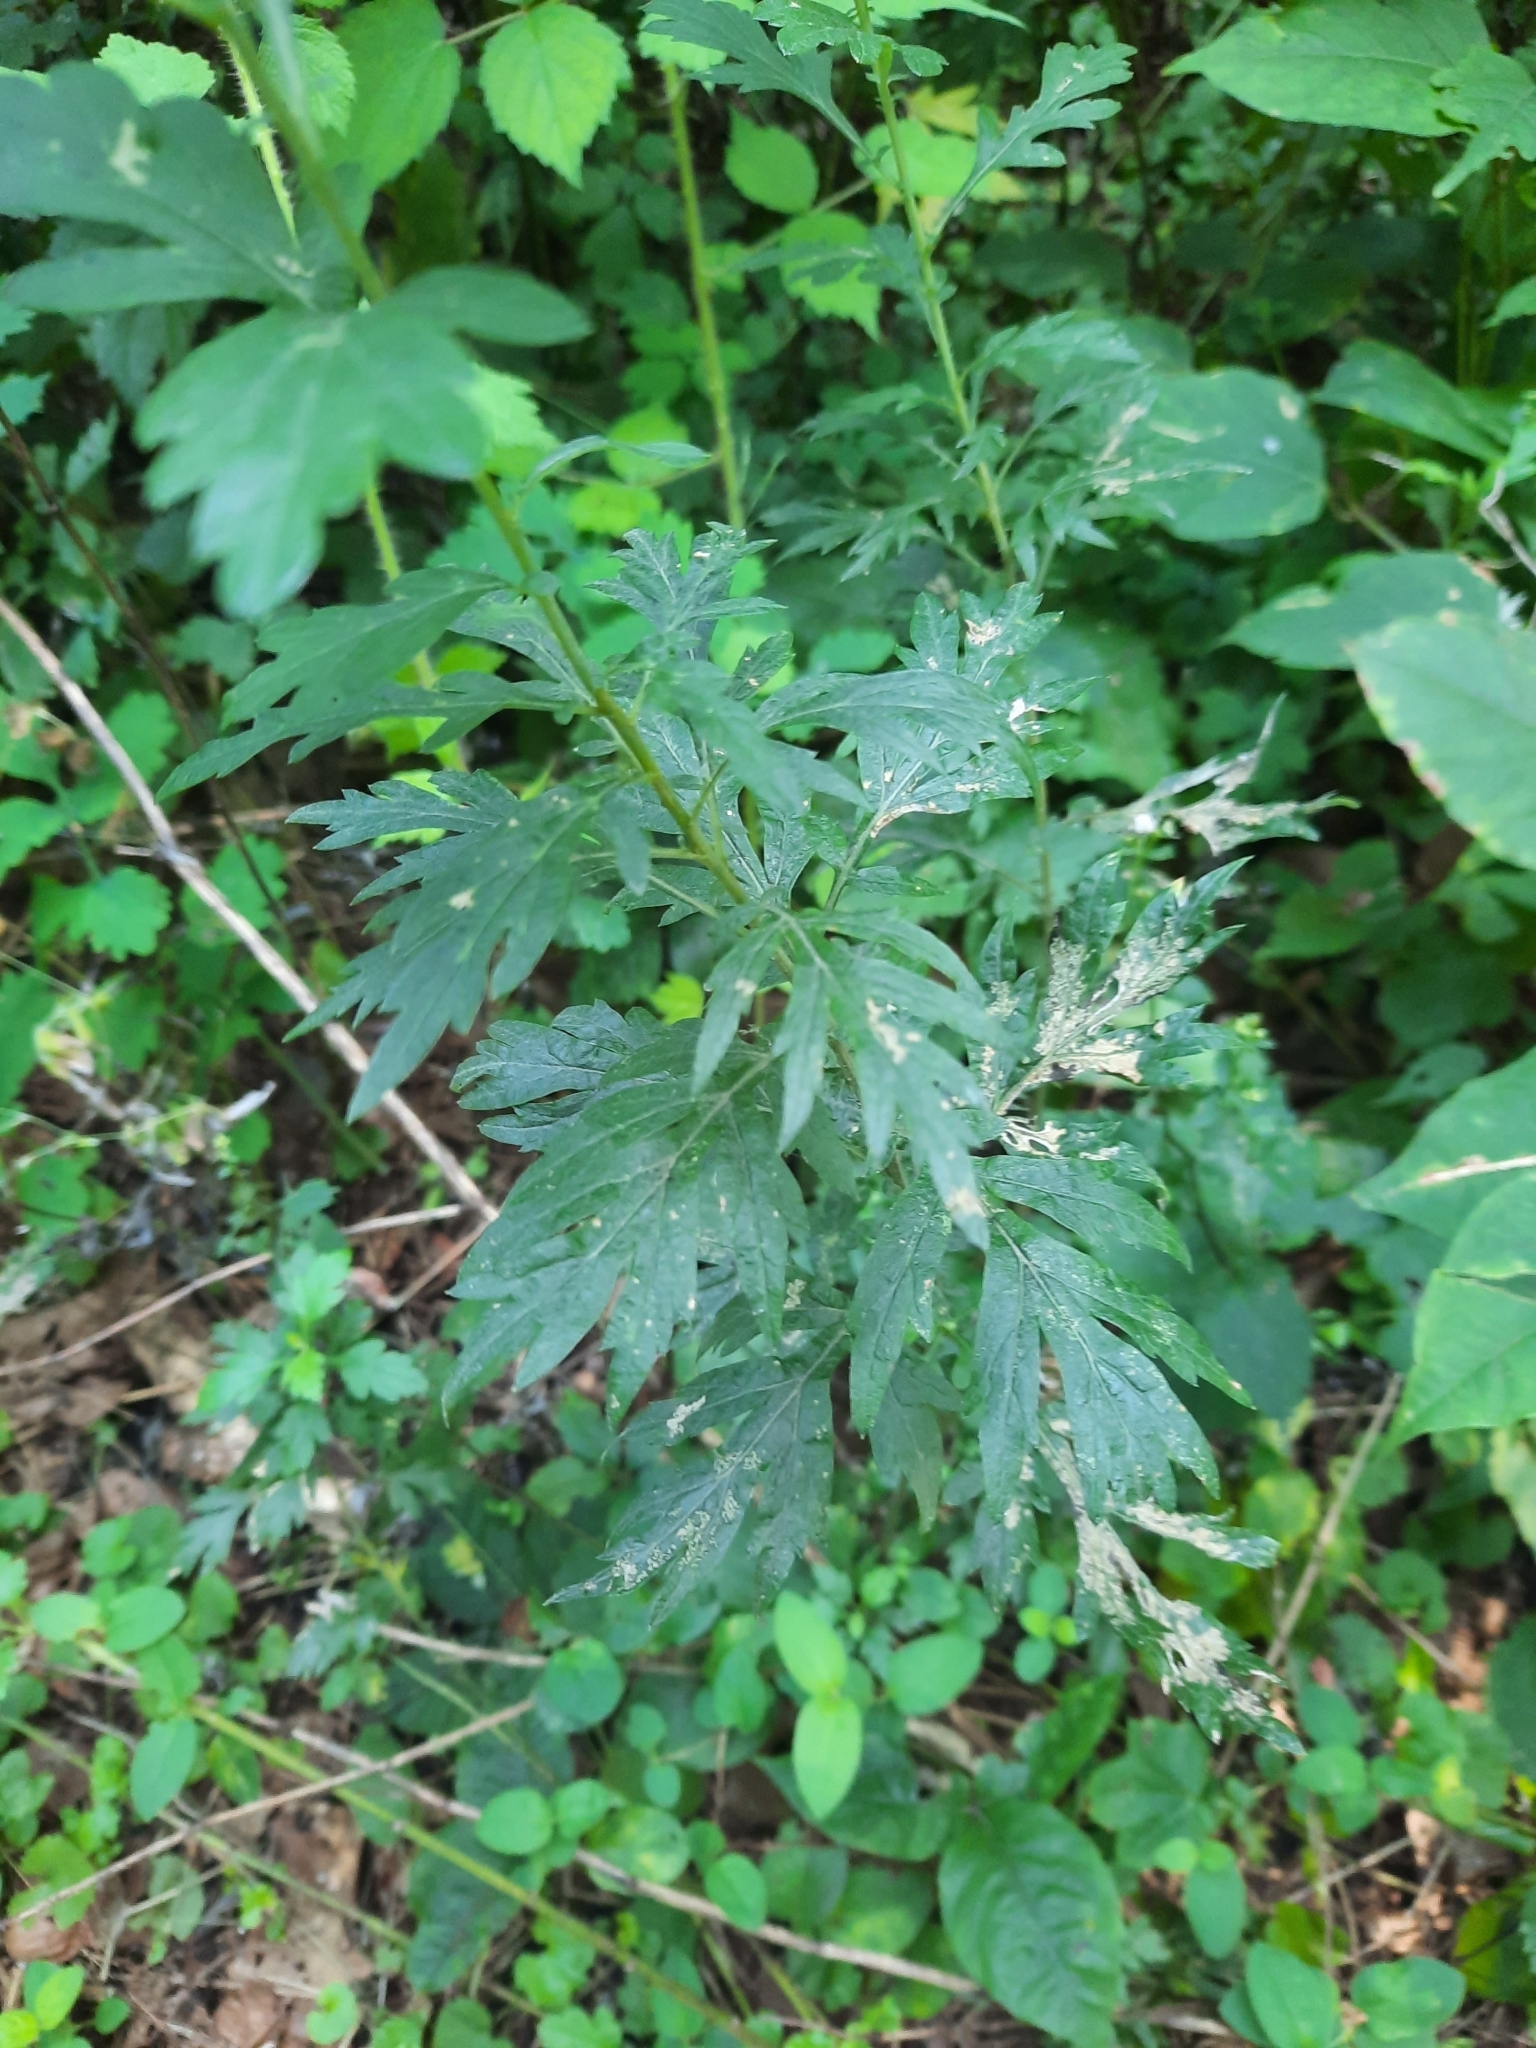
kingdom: Plantae
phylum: Tracheophyta
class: Magnoliopsida
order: Asterales
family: Asteraceae
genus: Artemisia
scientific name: Artemisia vulgaris
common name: Mugwort
